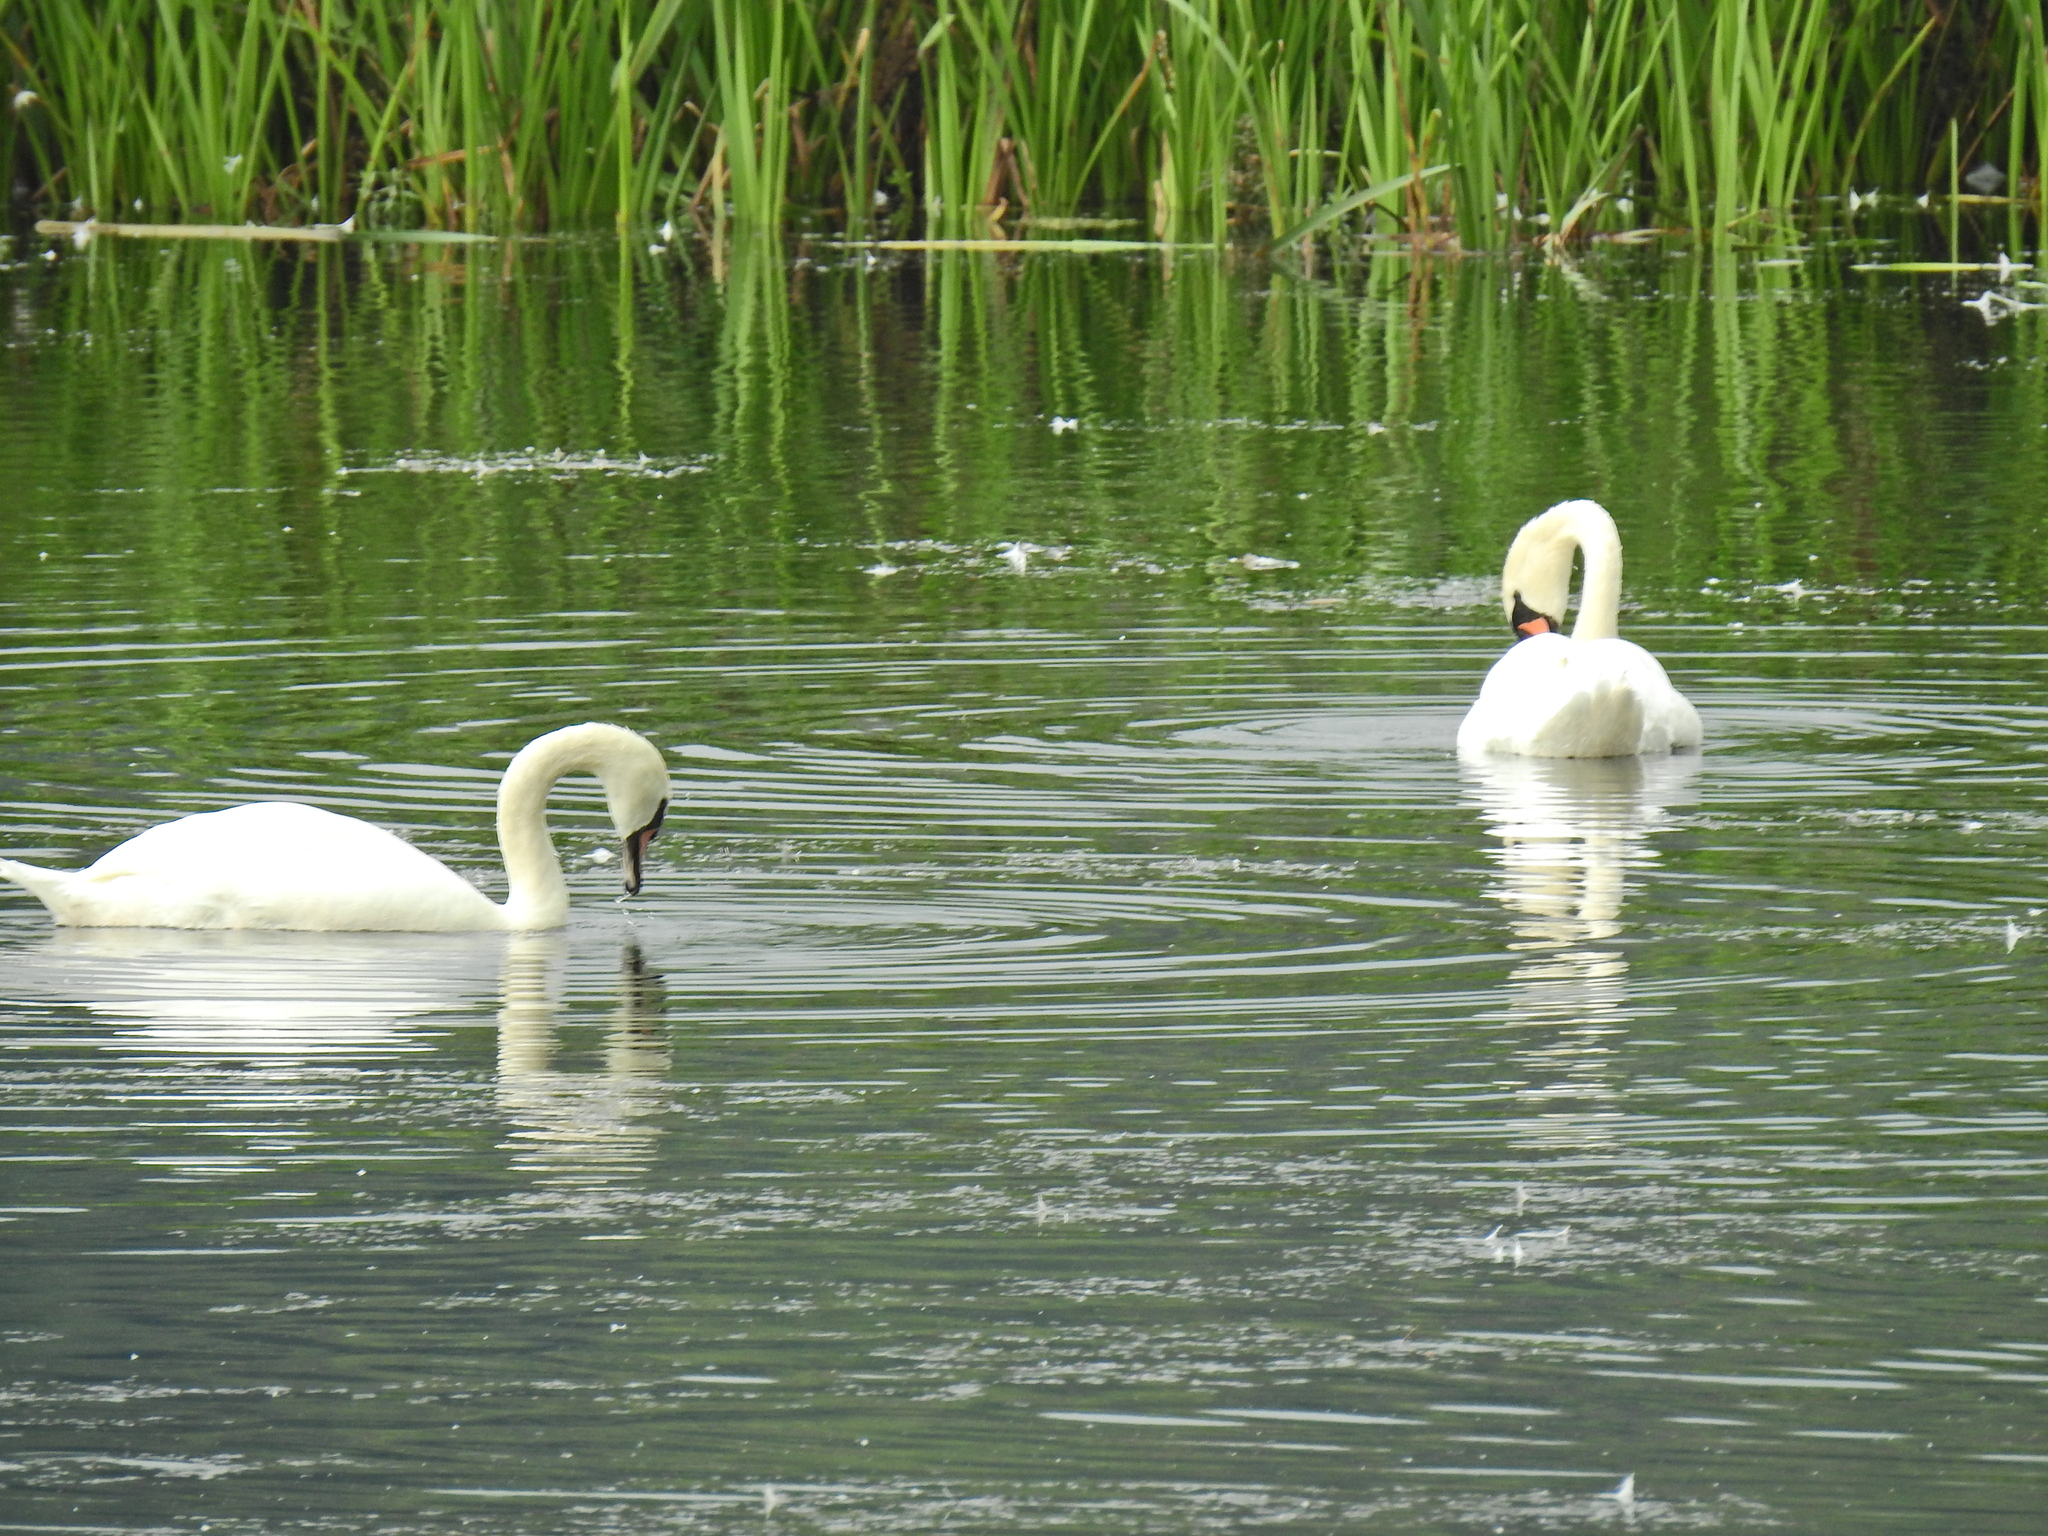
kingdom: Animalia
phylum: Chordata
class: Aves
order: Anseriformes
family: Anatidae
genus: Cygnus
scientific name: Cygnus olor
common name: Mute swan
